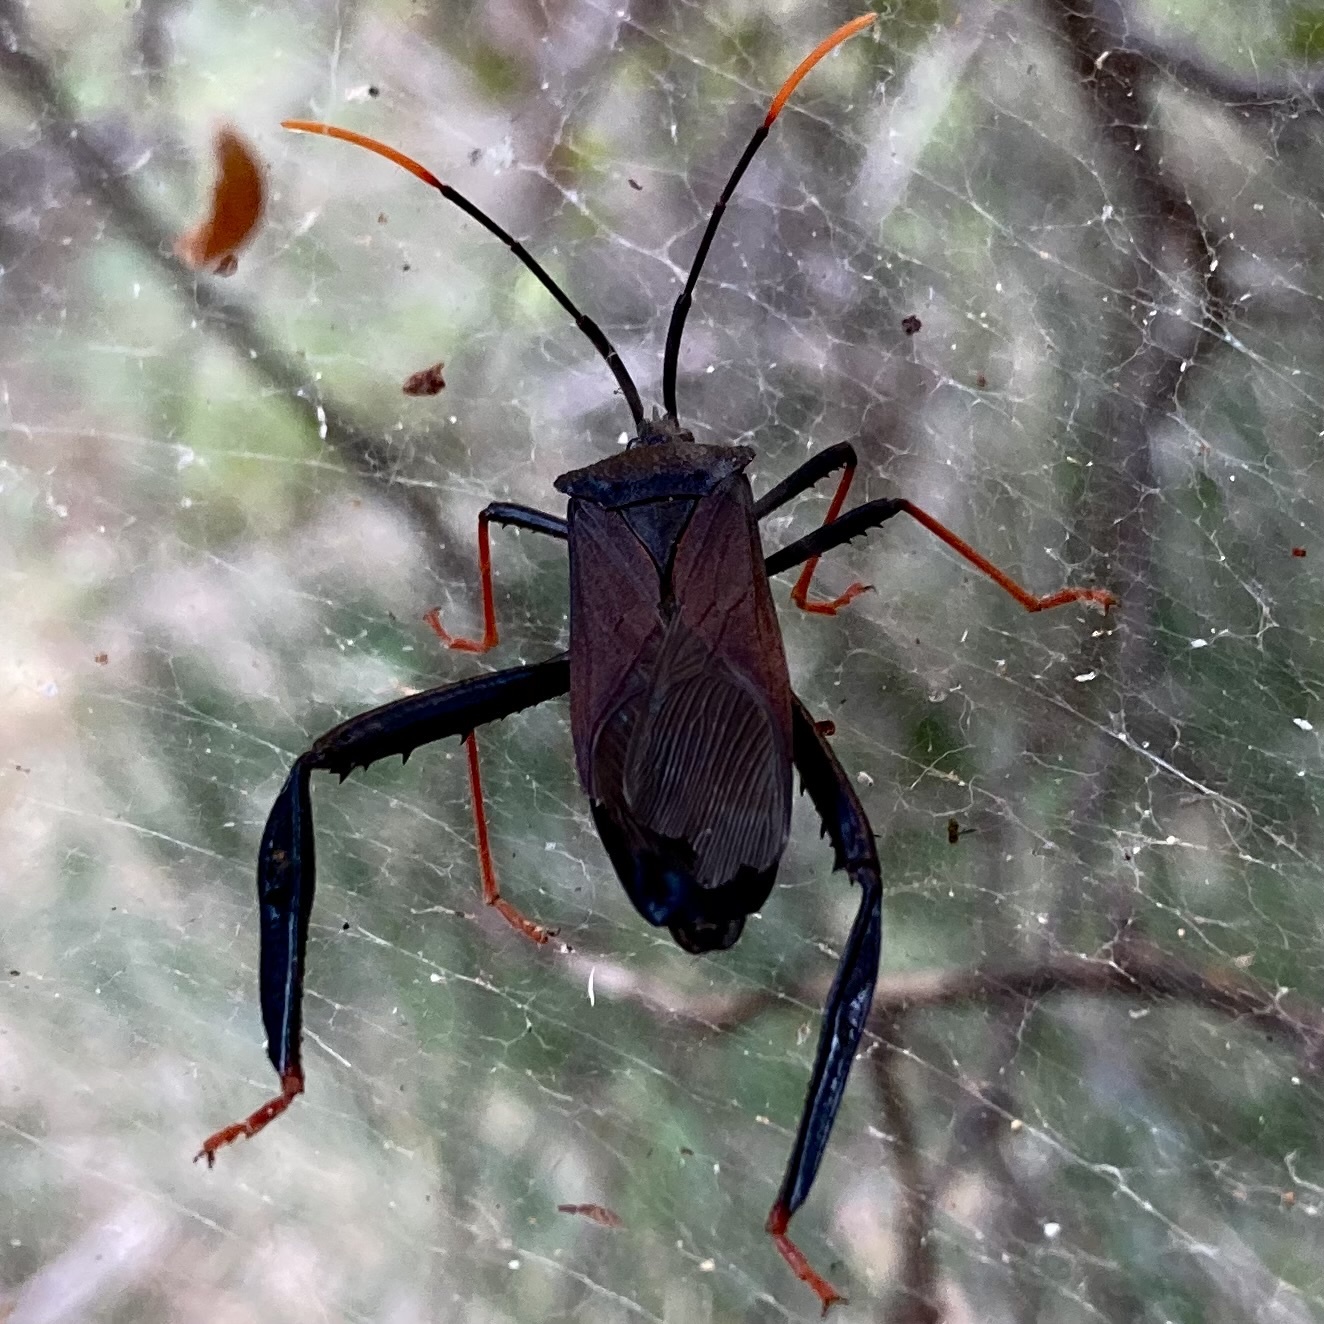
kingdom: Animalia
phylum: Arthropoda
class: Insecta
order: Hemiptera
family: Coreidae
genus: Acanthocephala
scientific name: Acanthocephala thomasi
